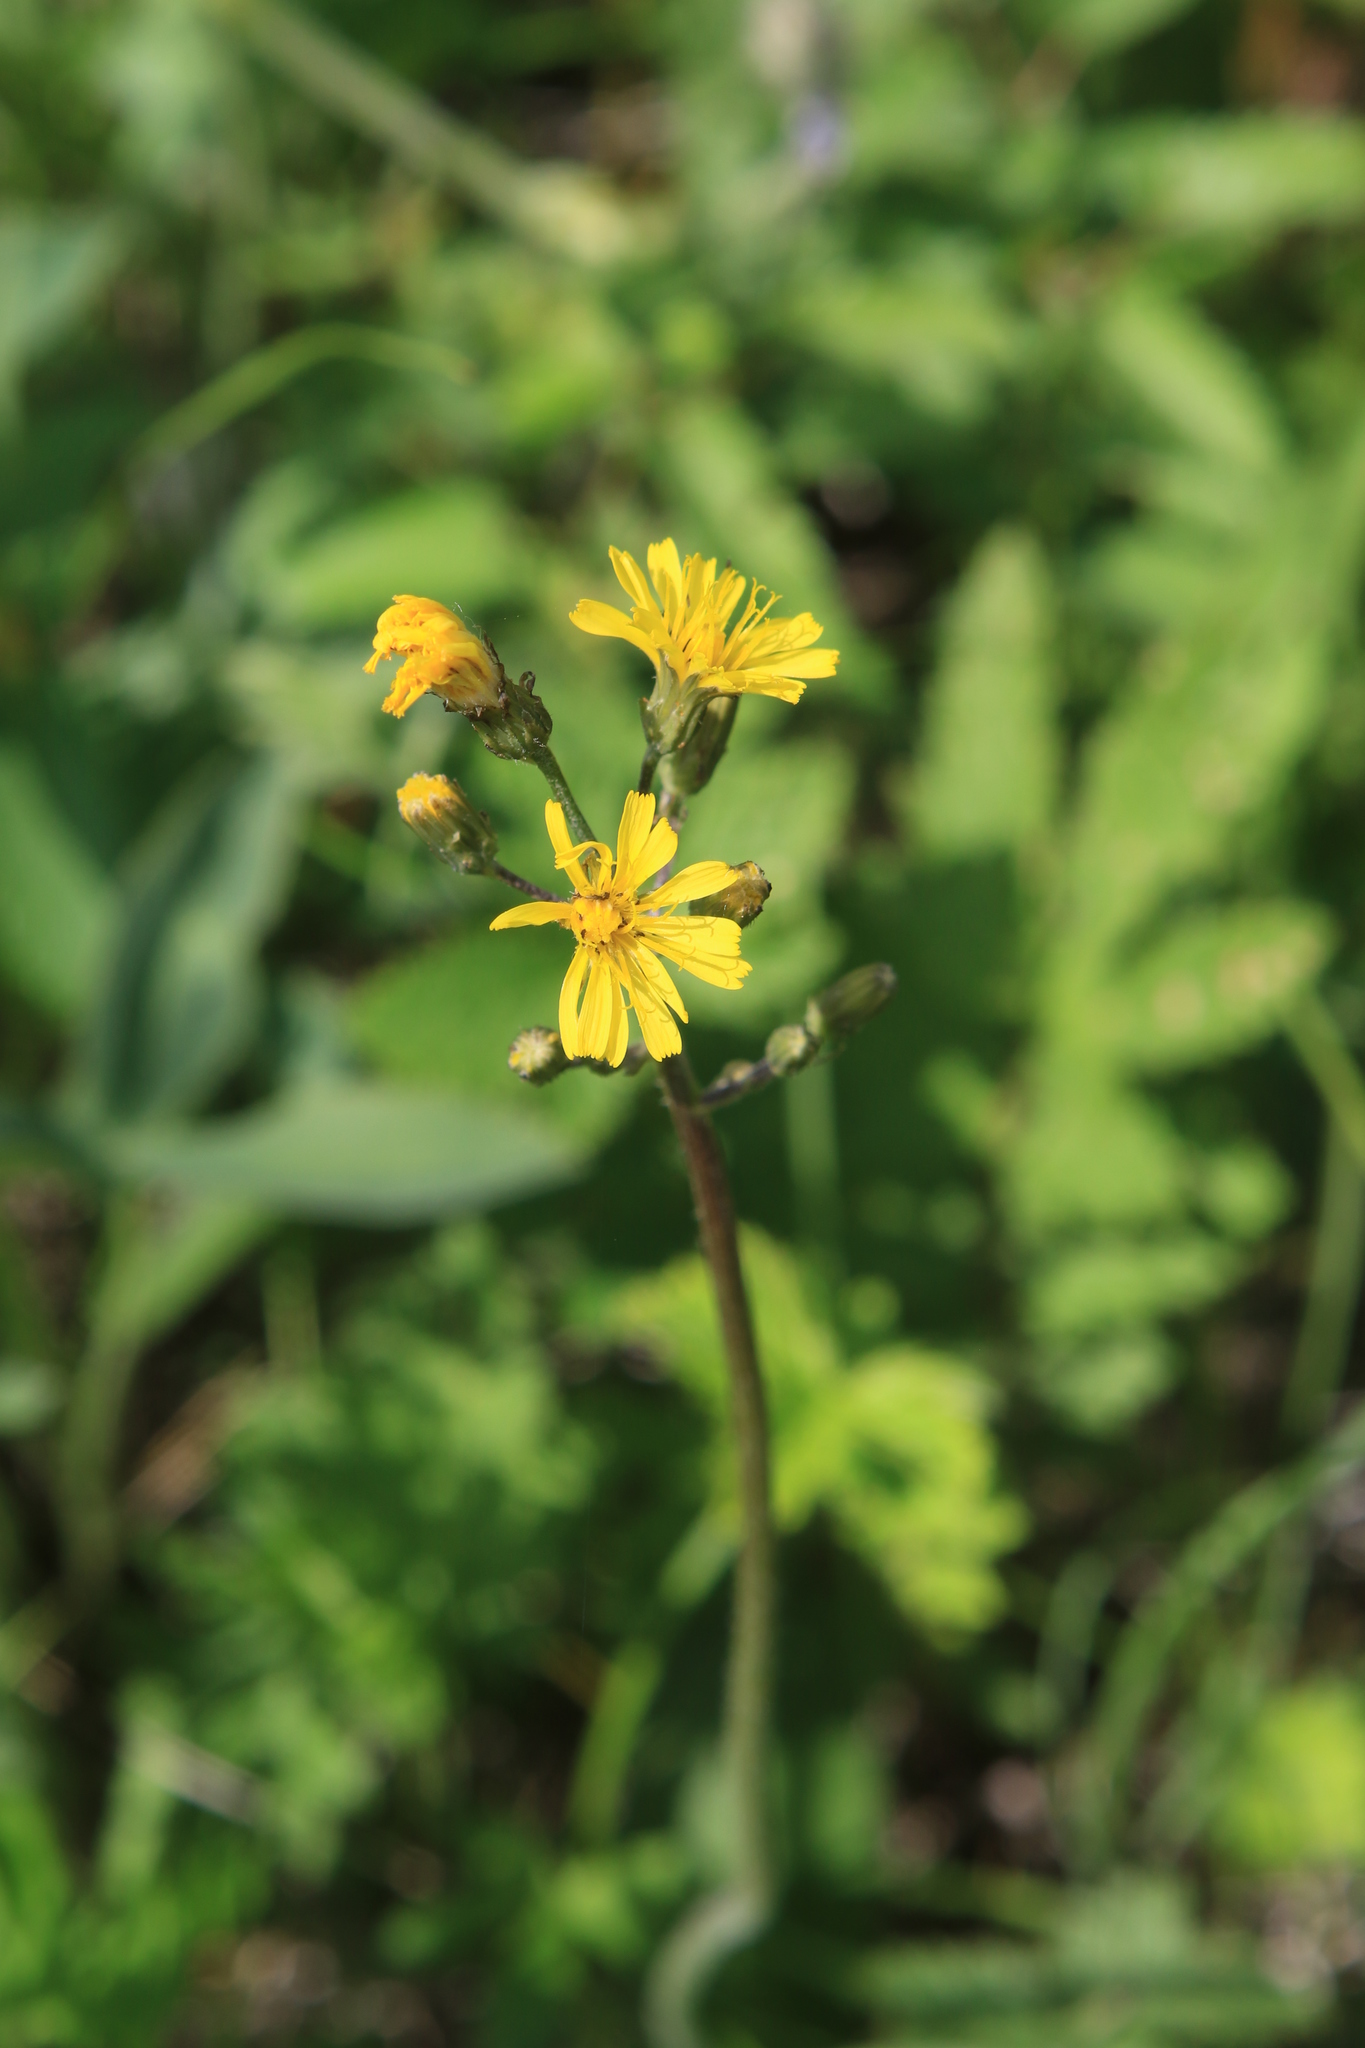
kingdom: Plantae
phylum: Tracheophyta
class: Magnoliopsida
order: Asterales
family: Asteraceae
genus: Crepis
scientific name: Crepis praemorsa
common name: Leafless hawk's-beard
